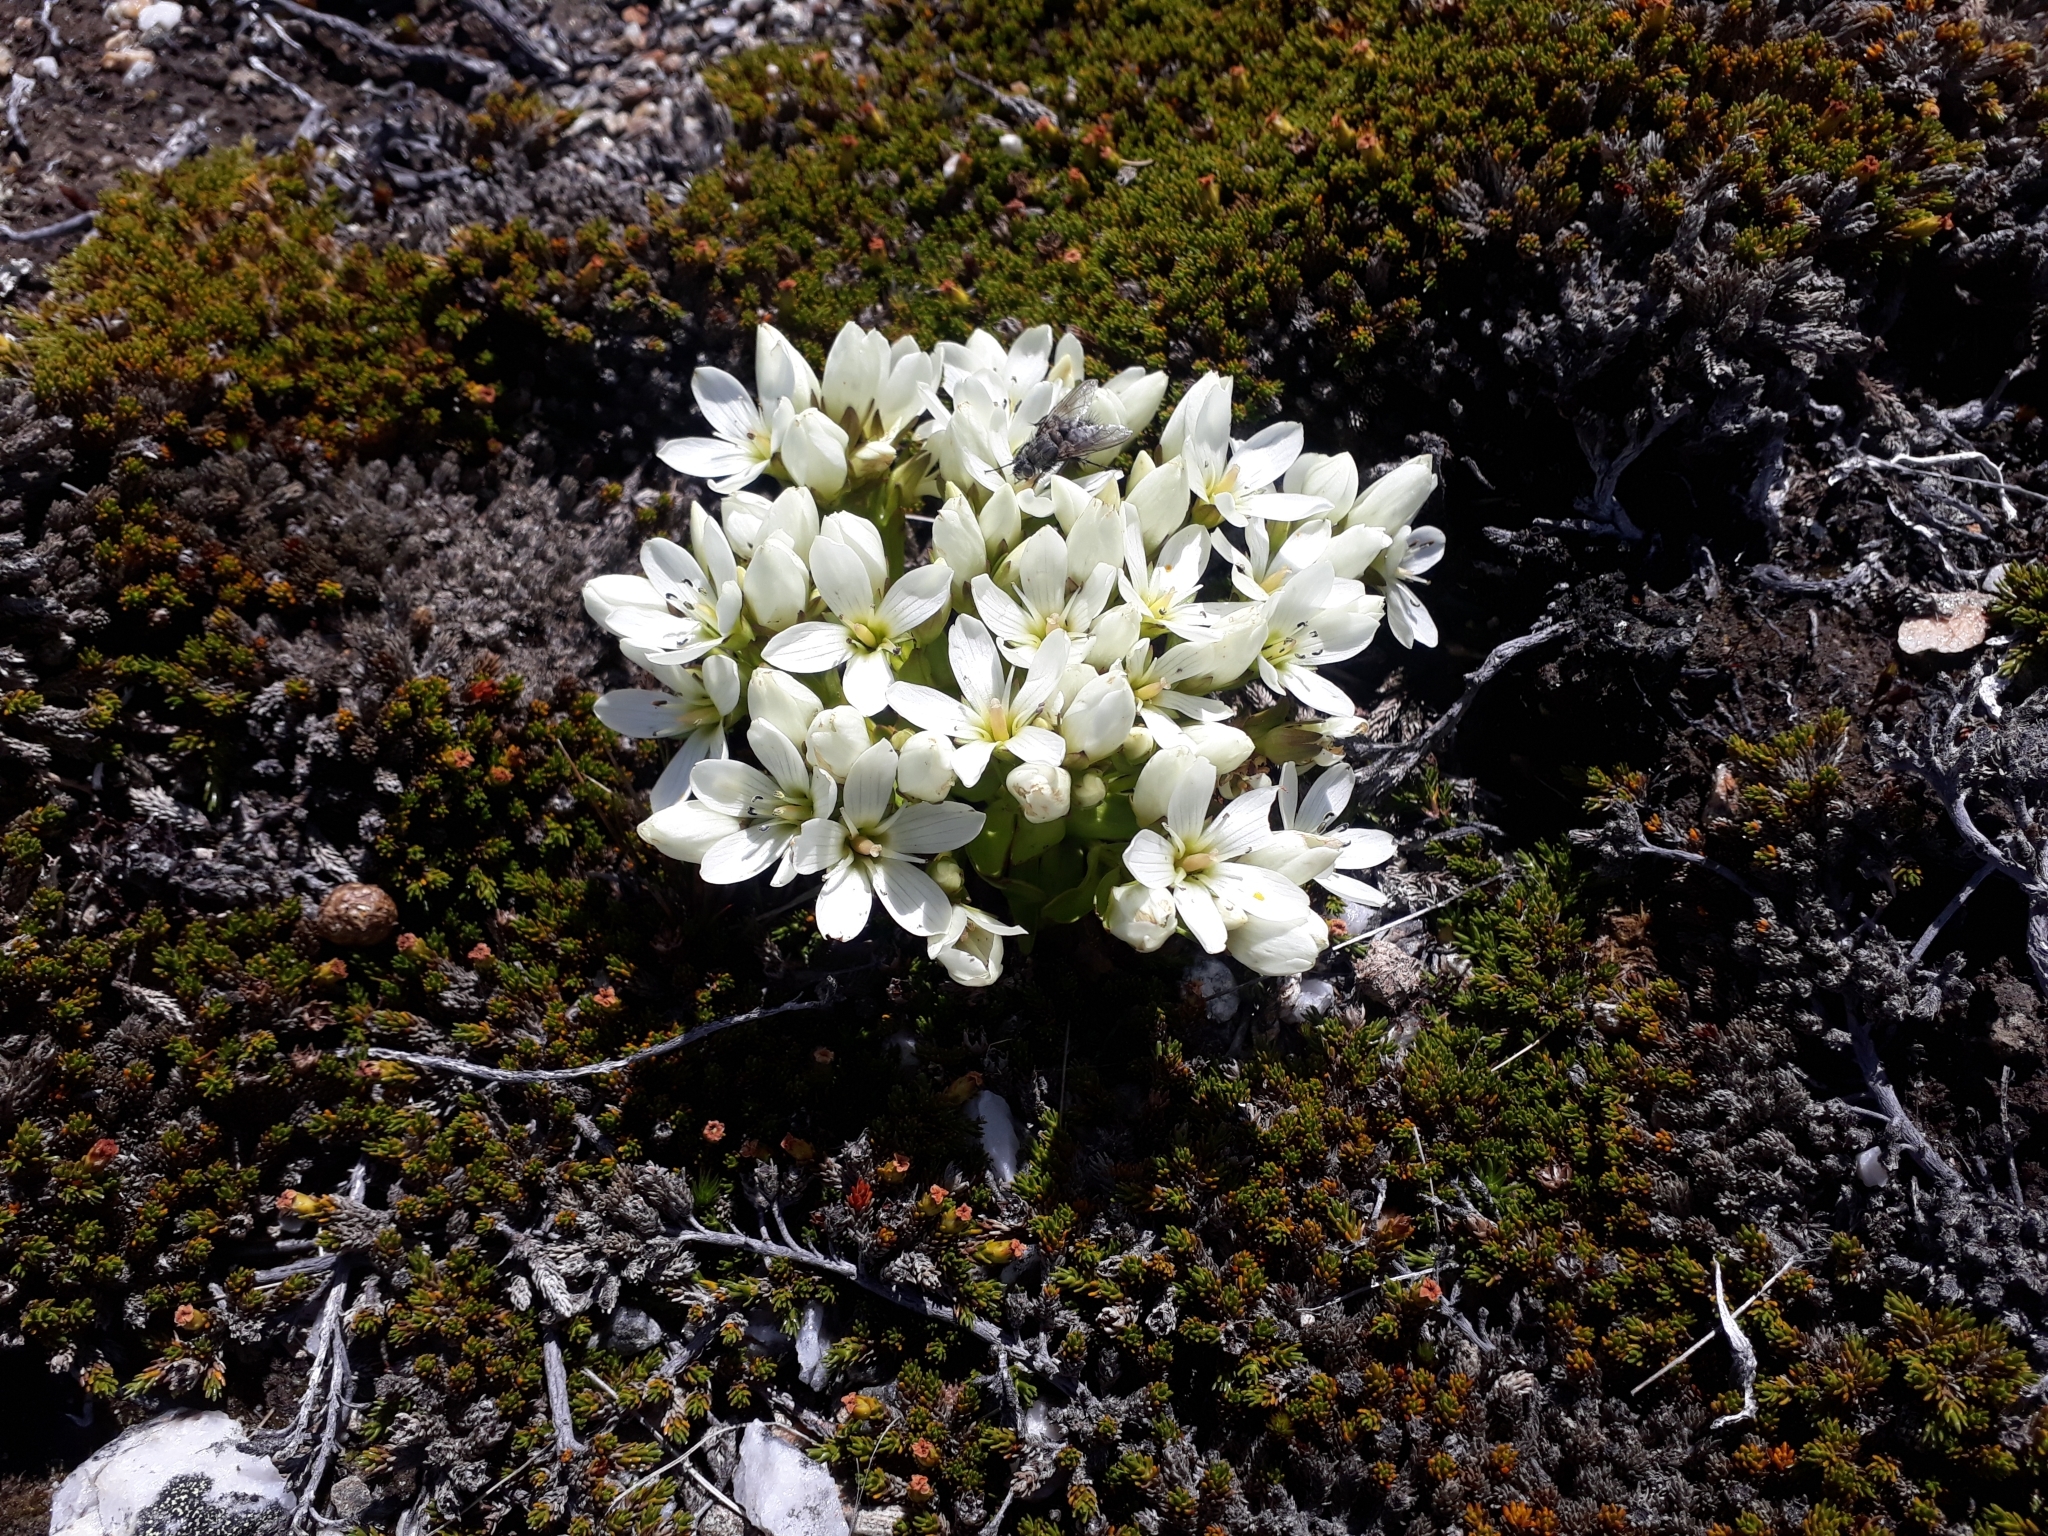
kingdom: Plantae
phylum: Tracheophyta
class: Magnoliopsida
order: Gentianales
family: Gentianaceae
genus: Gentianella
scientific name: Gentianella divisa
